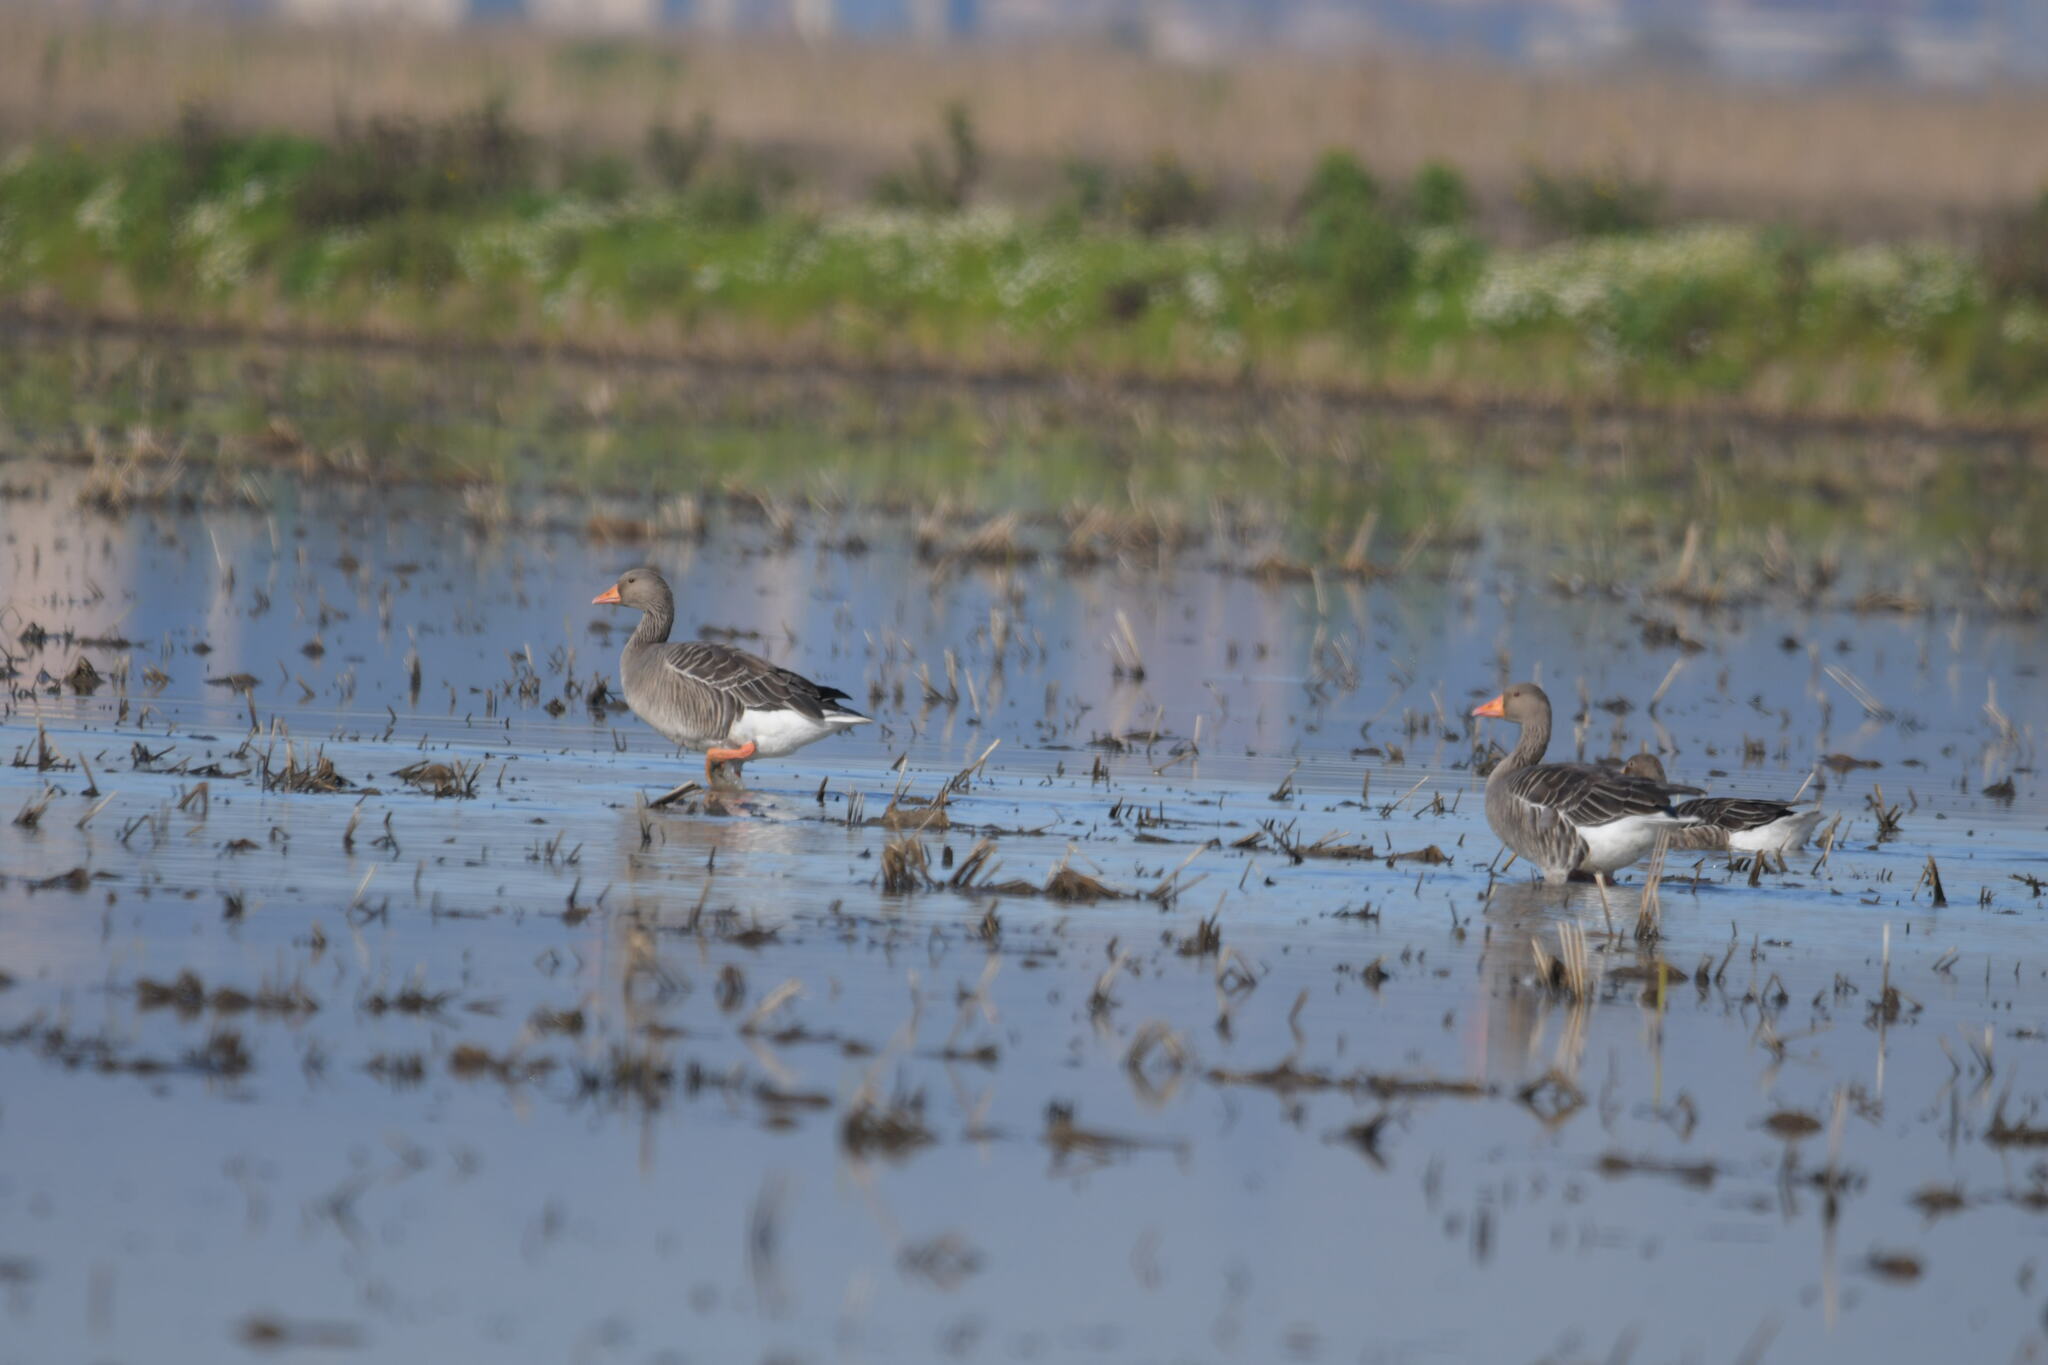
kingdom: Animalia
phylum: Chordata
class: Aves
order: Anseriformes
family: Anatidae
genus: Anser
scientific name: Anser anser
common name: Greylag goose
